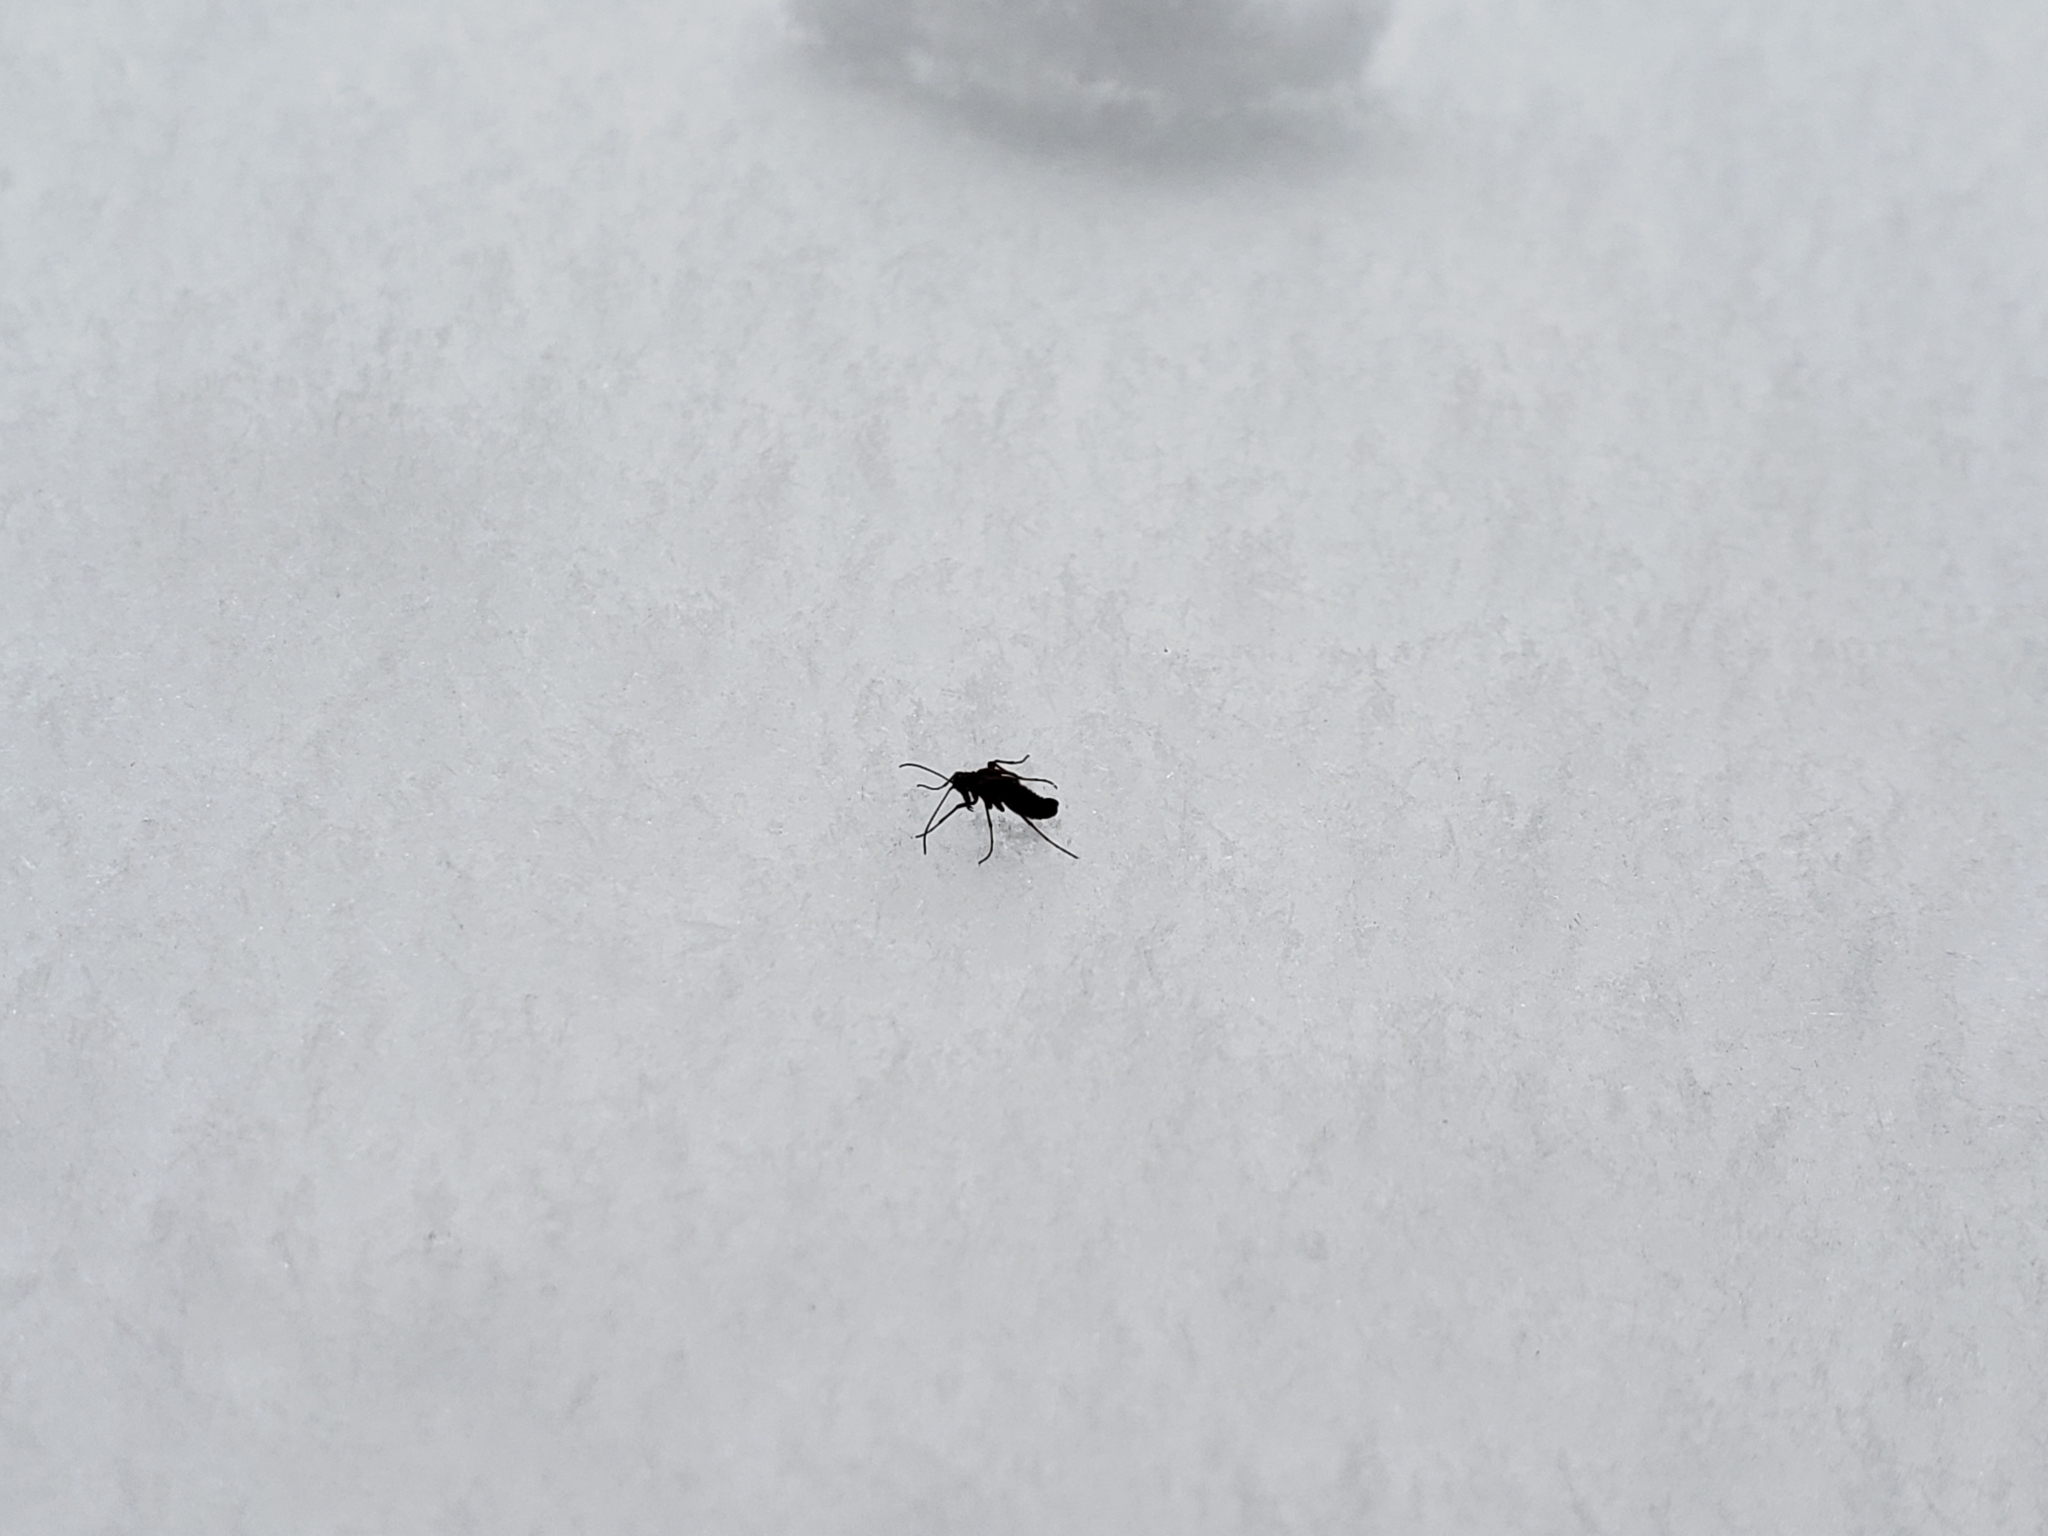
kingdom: Animalia
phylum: Arthropoda
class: Insecta
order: Mecoptera
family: Boreidae
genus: Boreus
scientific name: Boreus brumalis
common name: Mid-winter boreus
